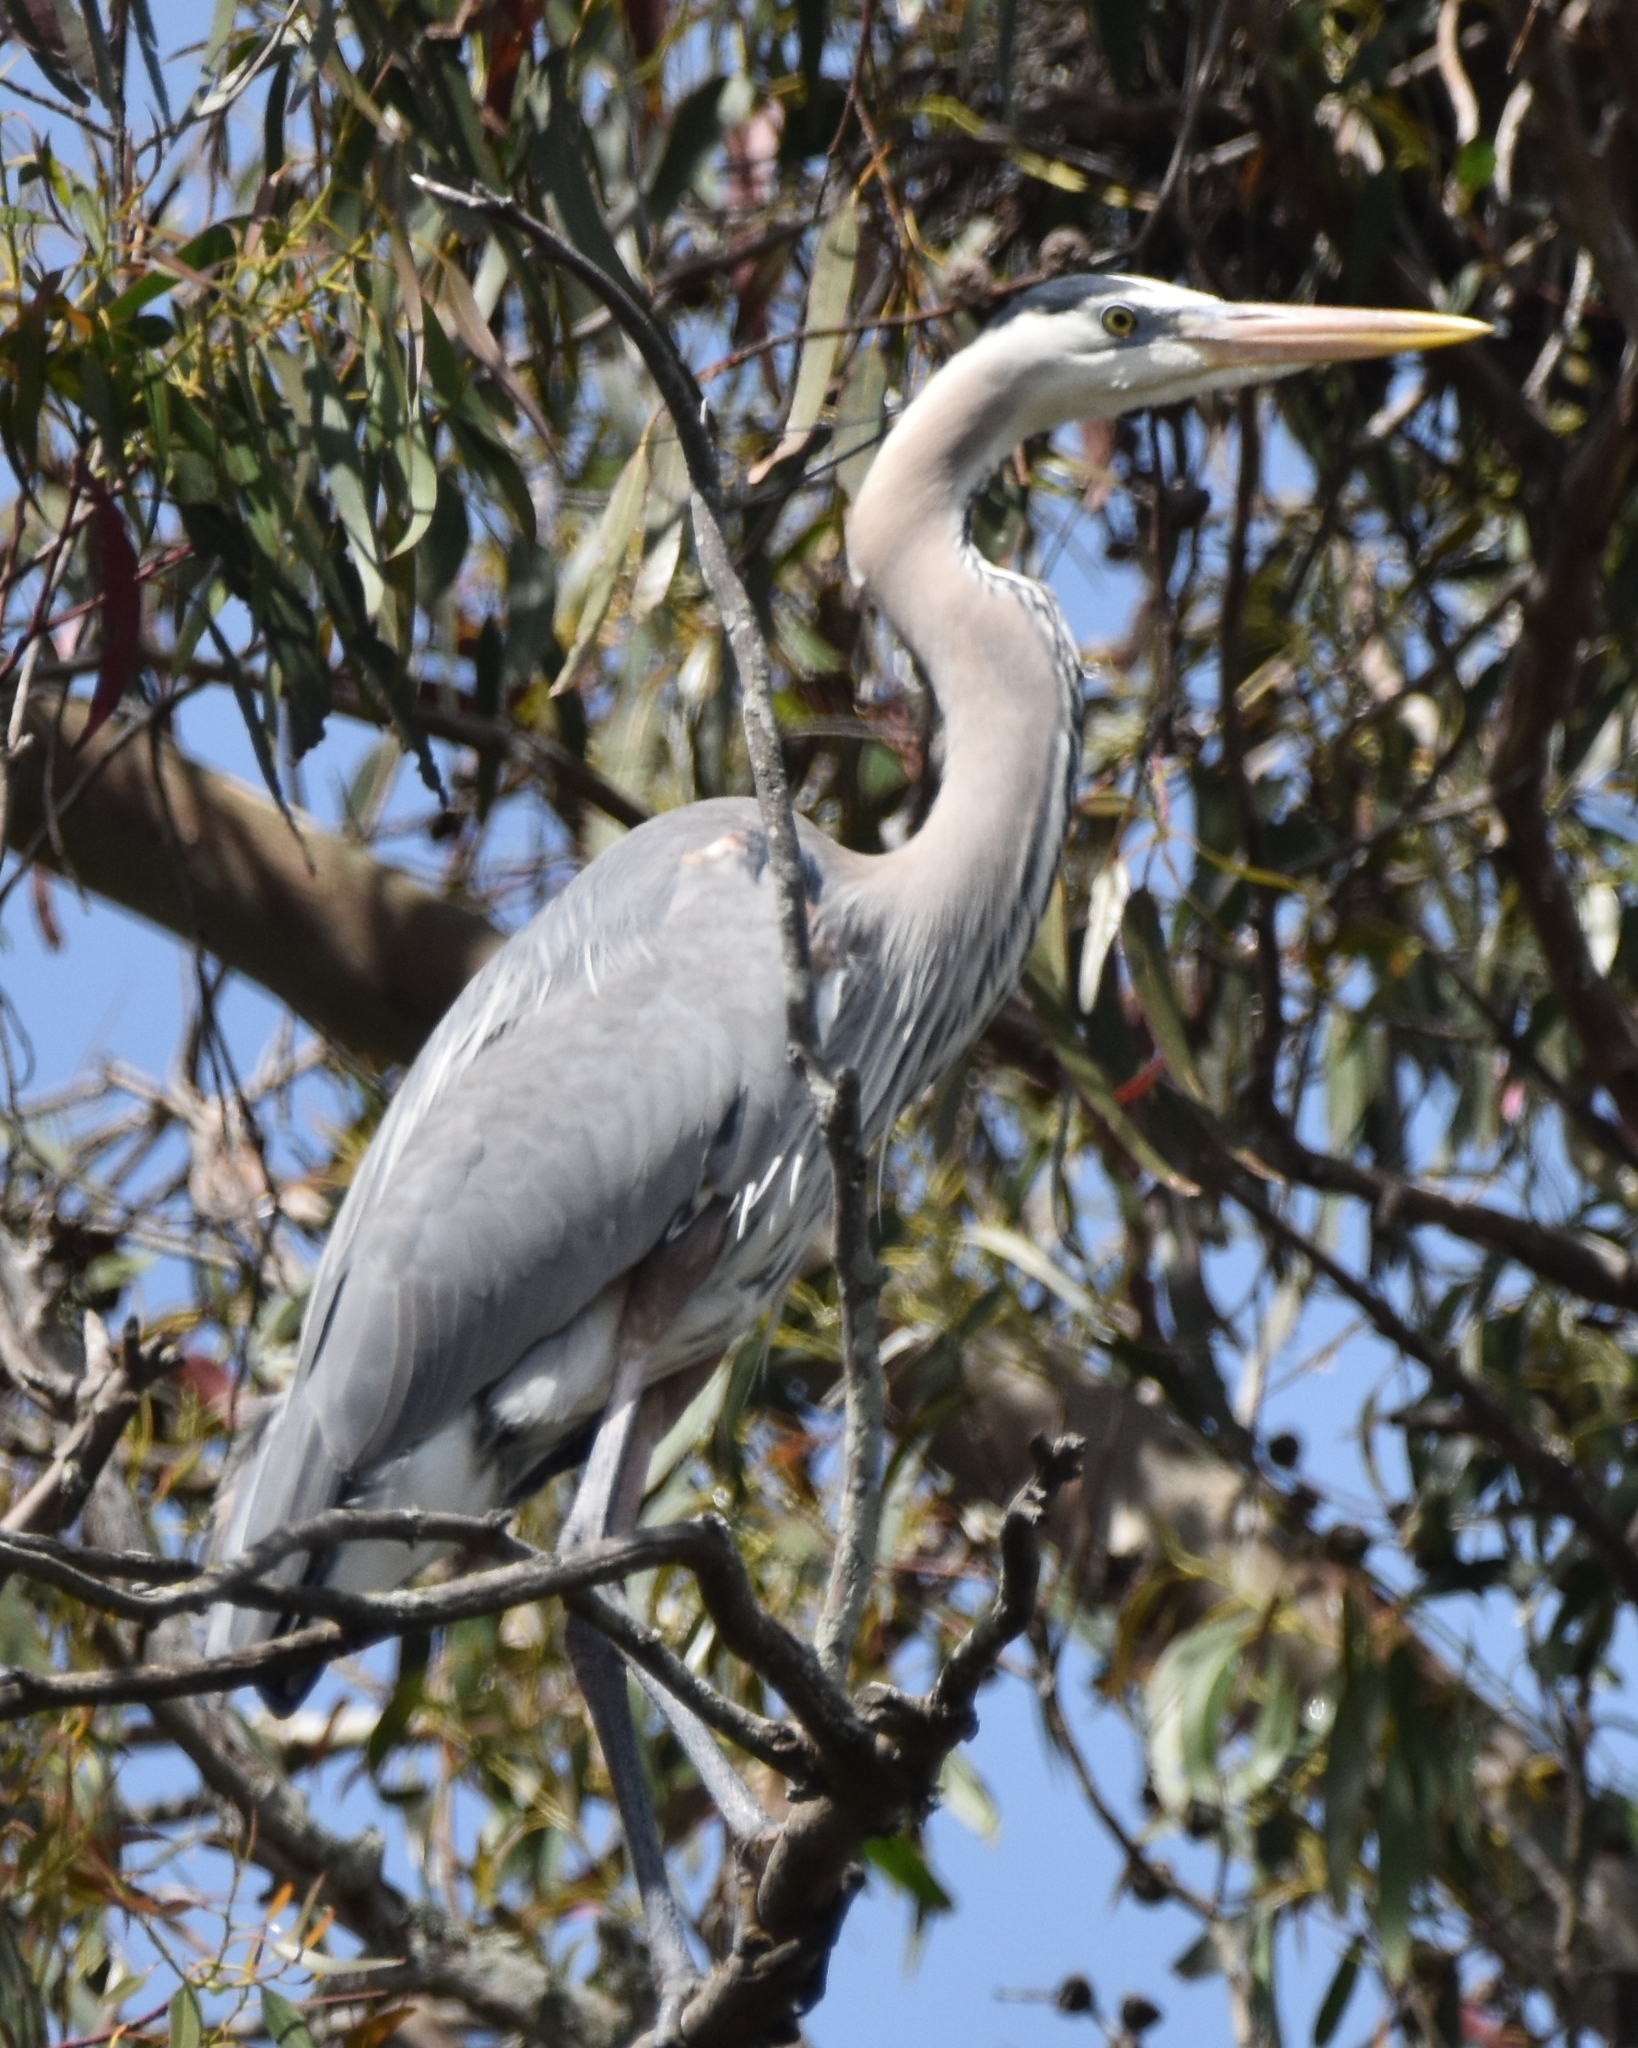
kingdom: Animalia
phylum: Chordata
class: Aves
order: Pelecaniformes
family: Ardeidae
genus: Ardea
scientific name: Ardea herodias
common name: Great blue heron
